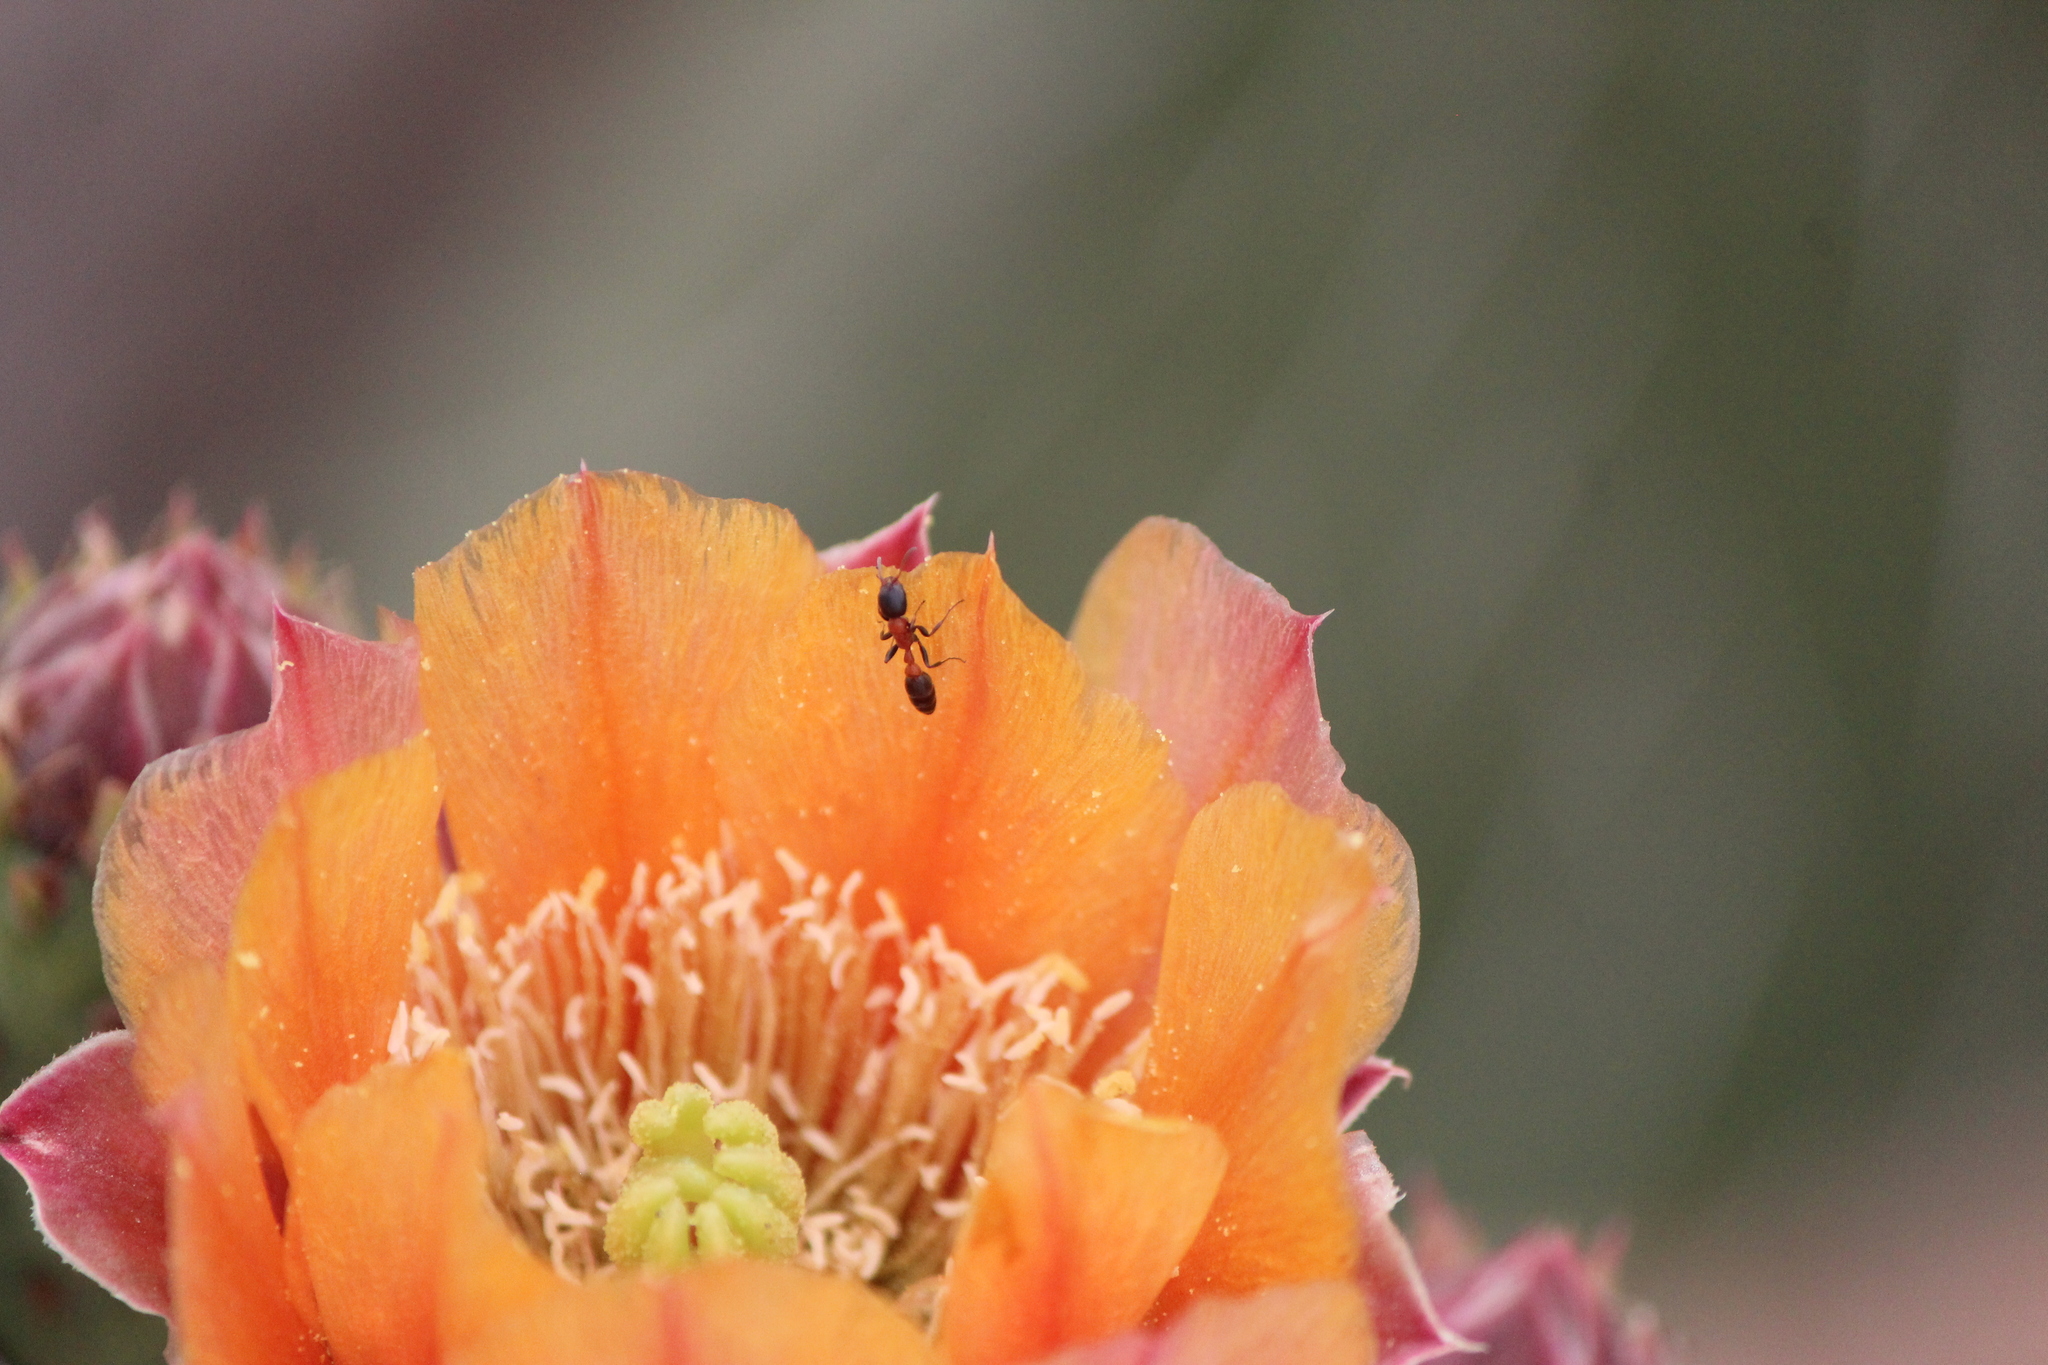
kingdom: Animalia
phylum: Arthropoda
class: Insecta
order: Hymenoptera
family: Formicidae
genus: Pseudomyrmex
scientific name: Pseudomyrmex gracilis
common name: Graceful twig ant
